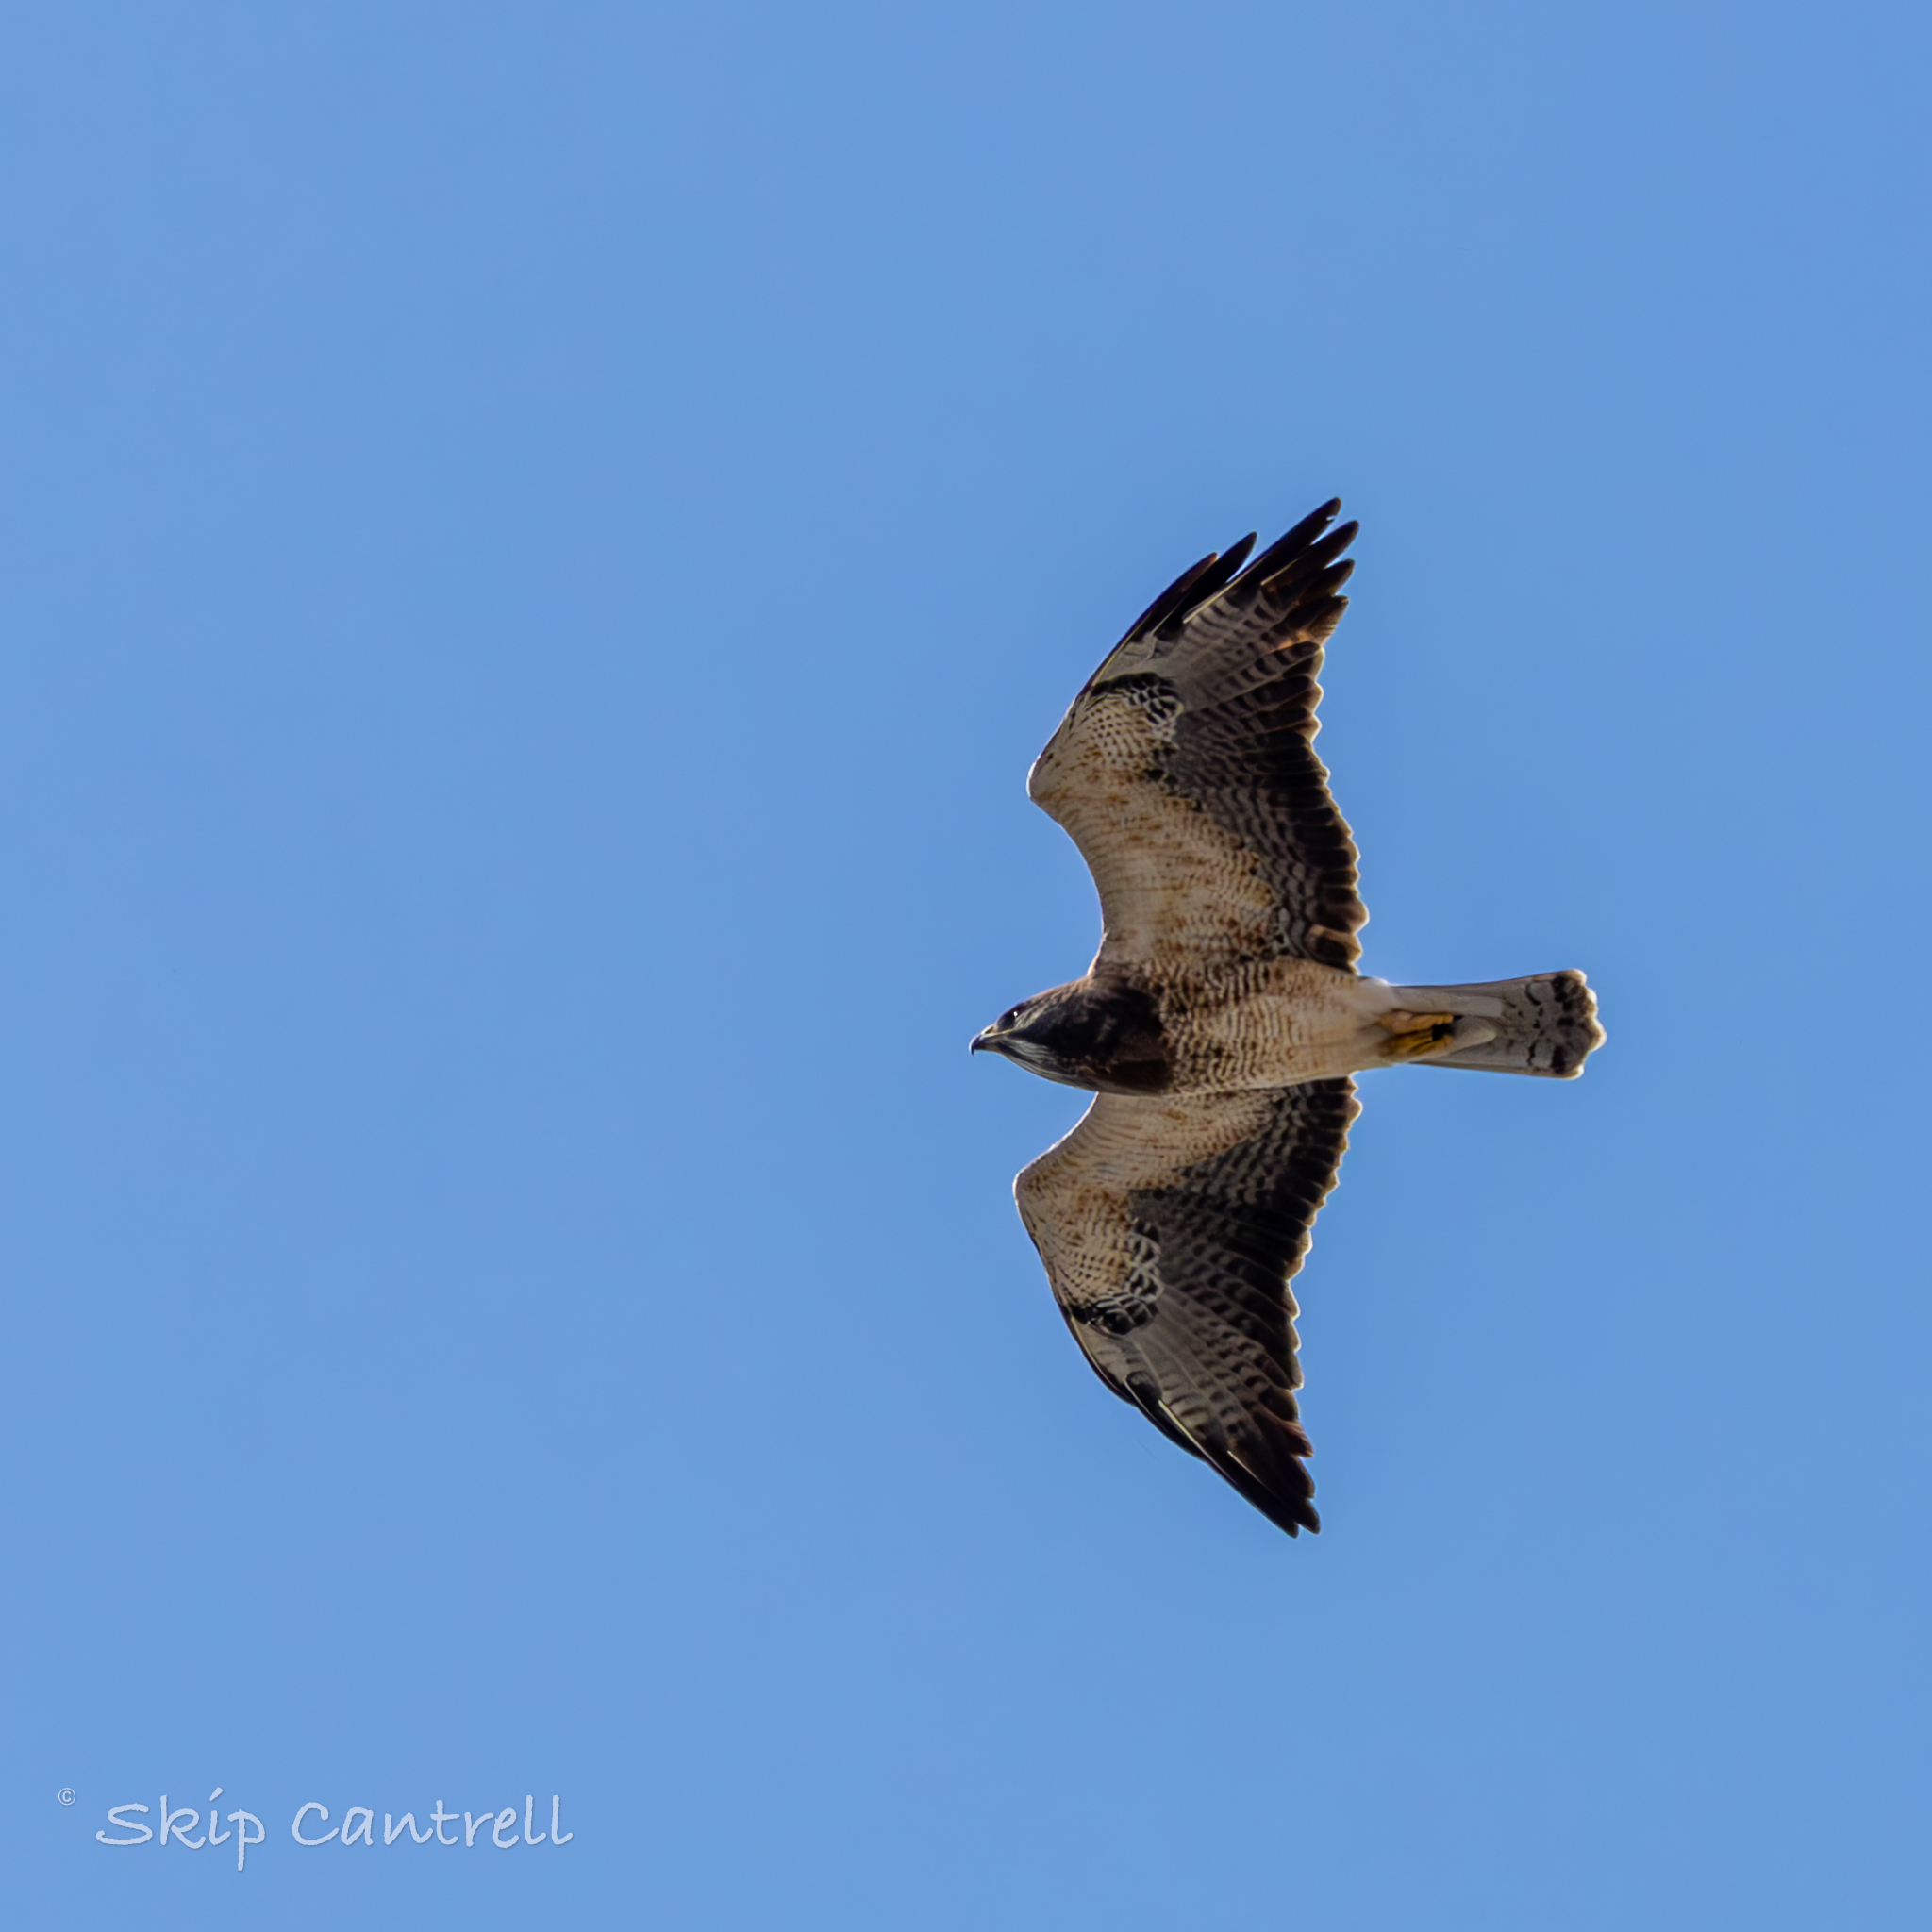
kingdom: Animalia
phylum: Chordata
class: Aves
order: Accipitriformes
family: Accipitridae
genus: Buteo
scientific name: Buteo swainsoni
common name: Swainson's hawk
